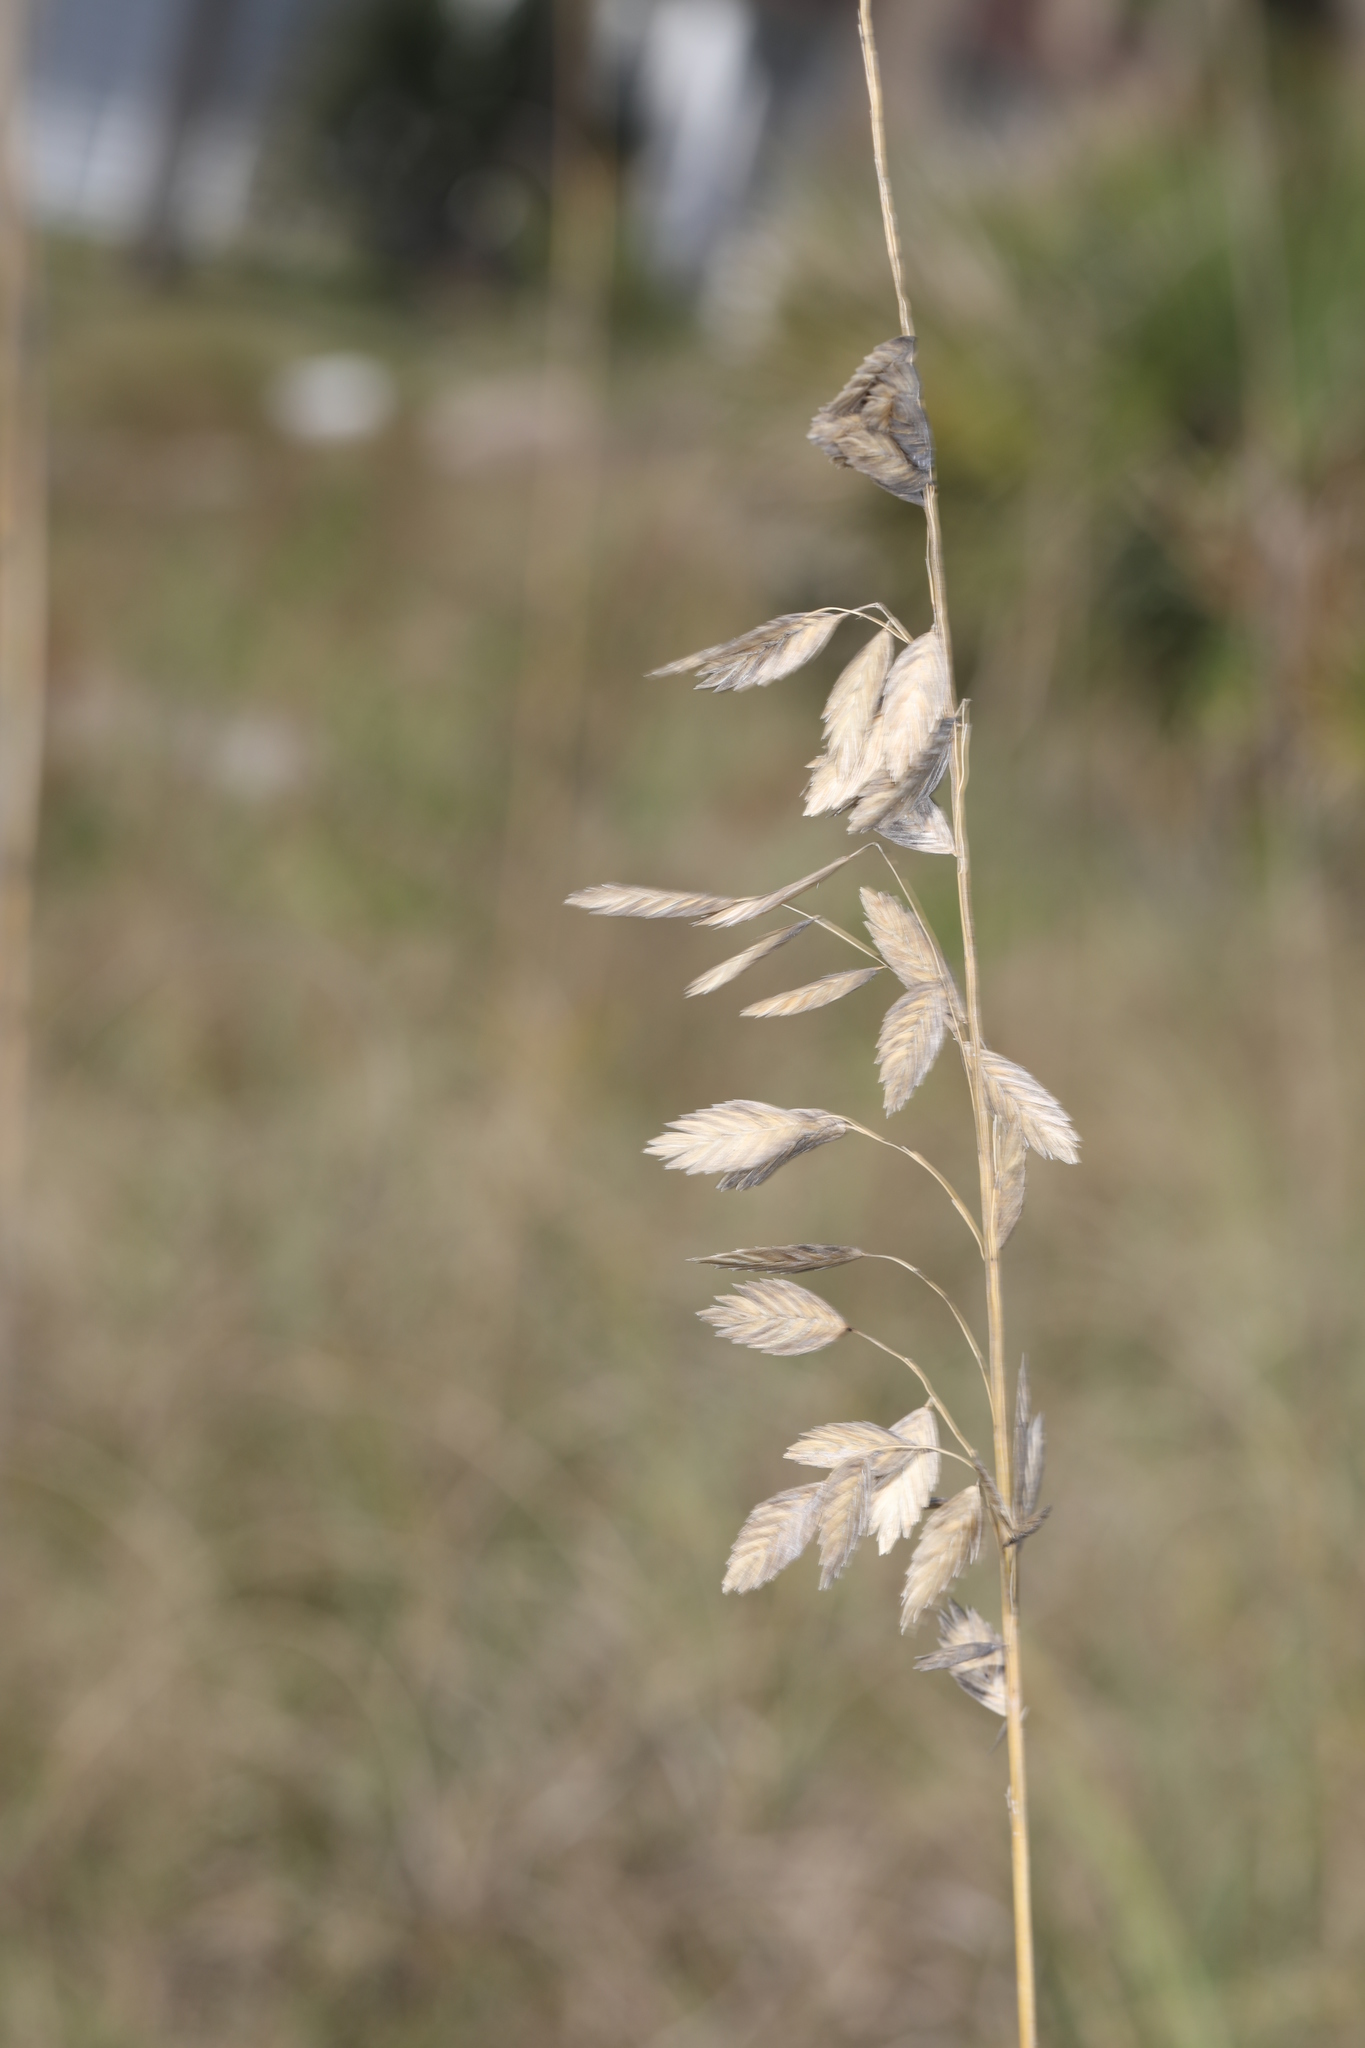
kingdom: Plantae
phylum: Tracheophyta
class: Liliopsida
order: Poales
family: Poaceae
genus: Uniola
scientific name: Uniola paniculata
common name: Seaside-oats
